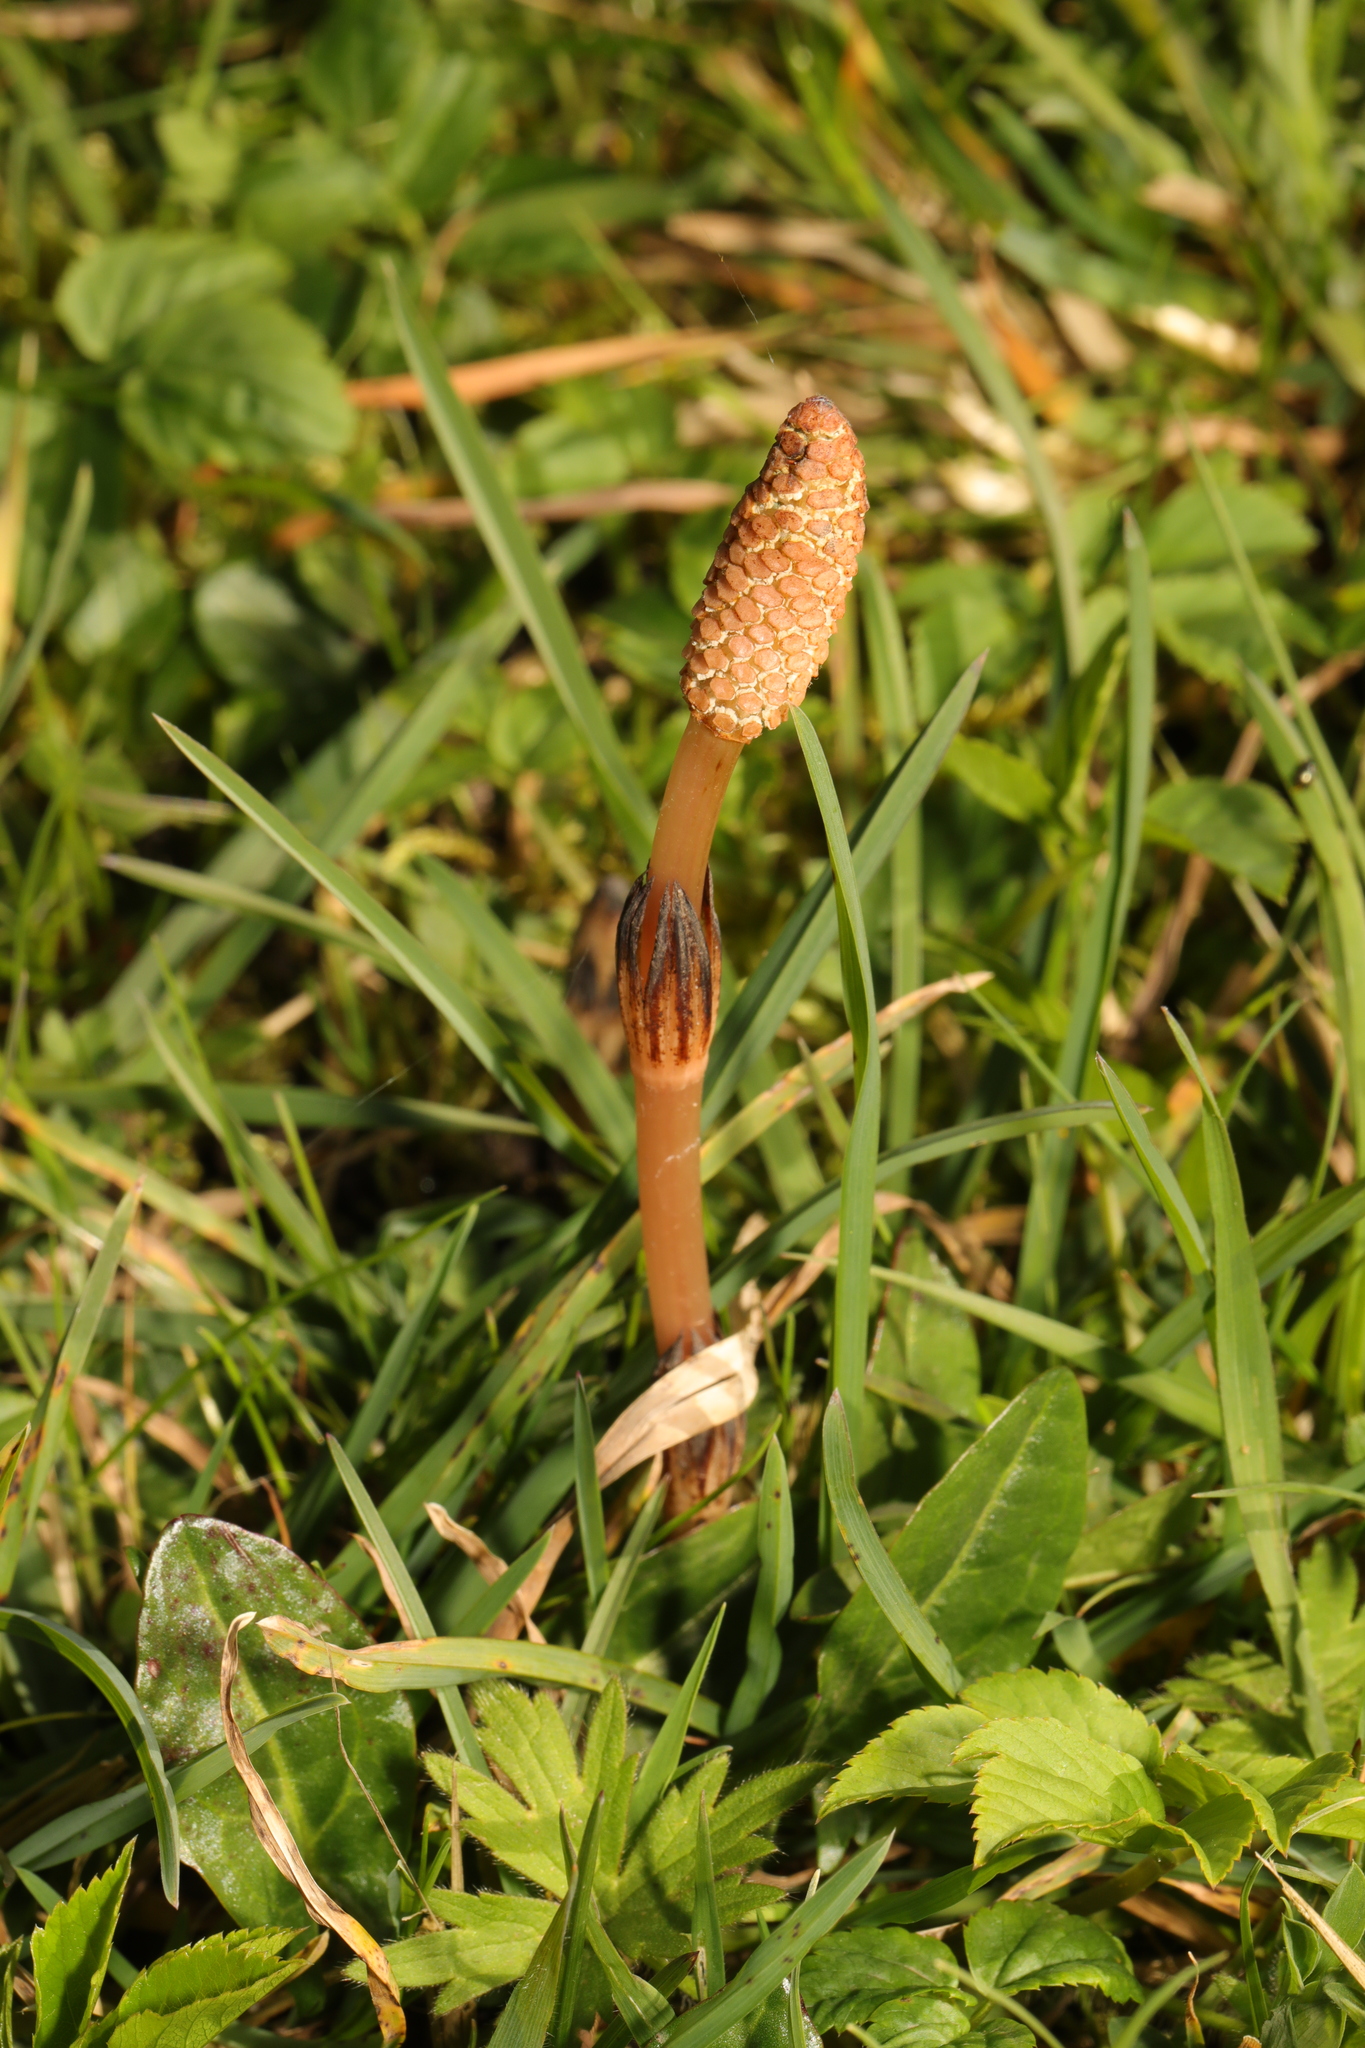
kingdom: Plantae
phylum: Tracheophyta
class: Polypodiopsida
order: Equisetales
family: Equisetaceae
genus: Equisetum
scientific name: Equisetum arvense
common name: Field horsetail
